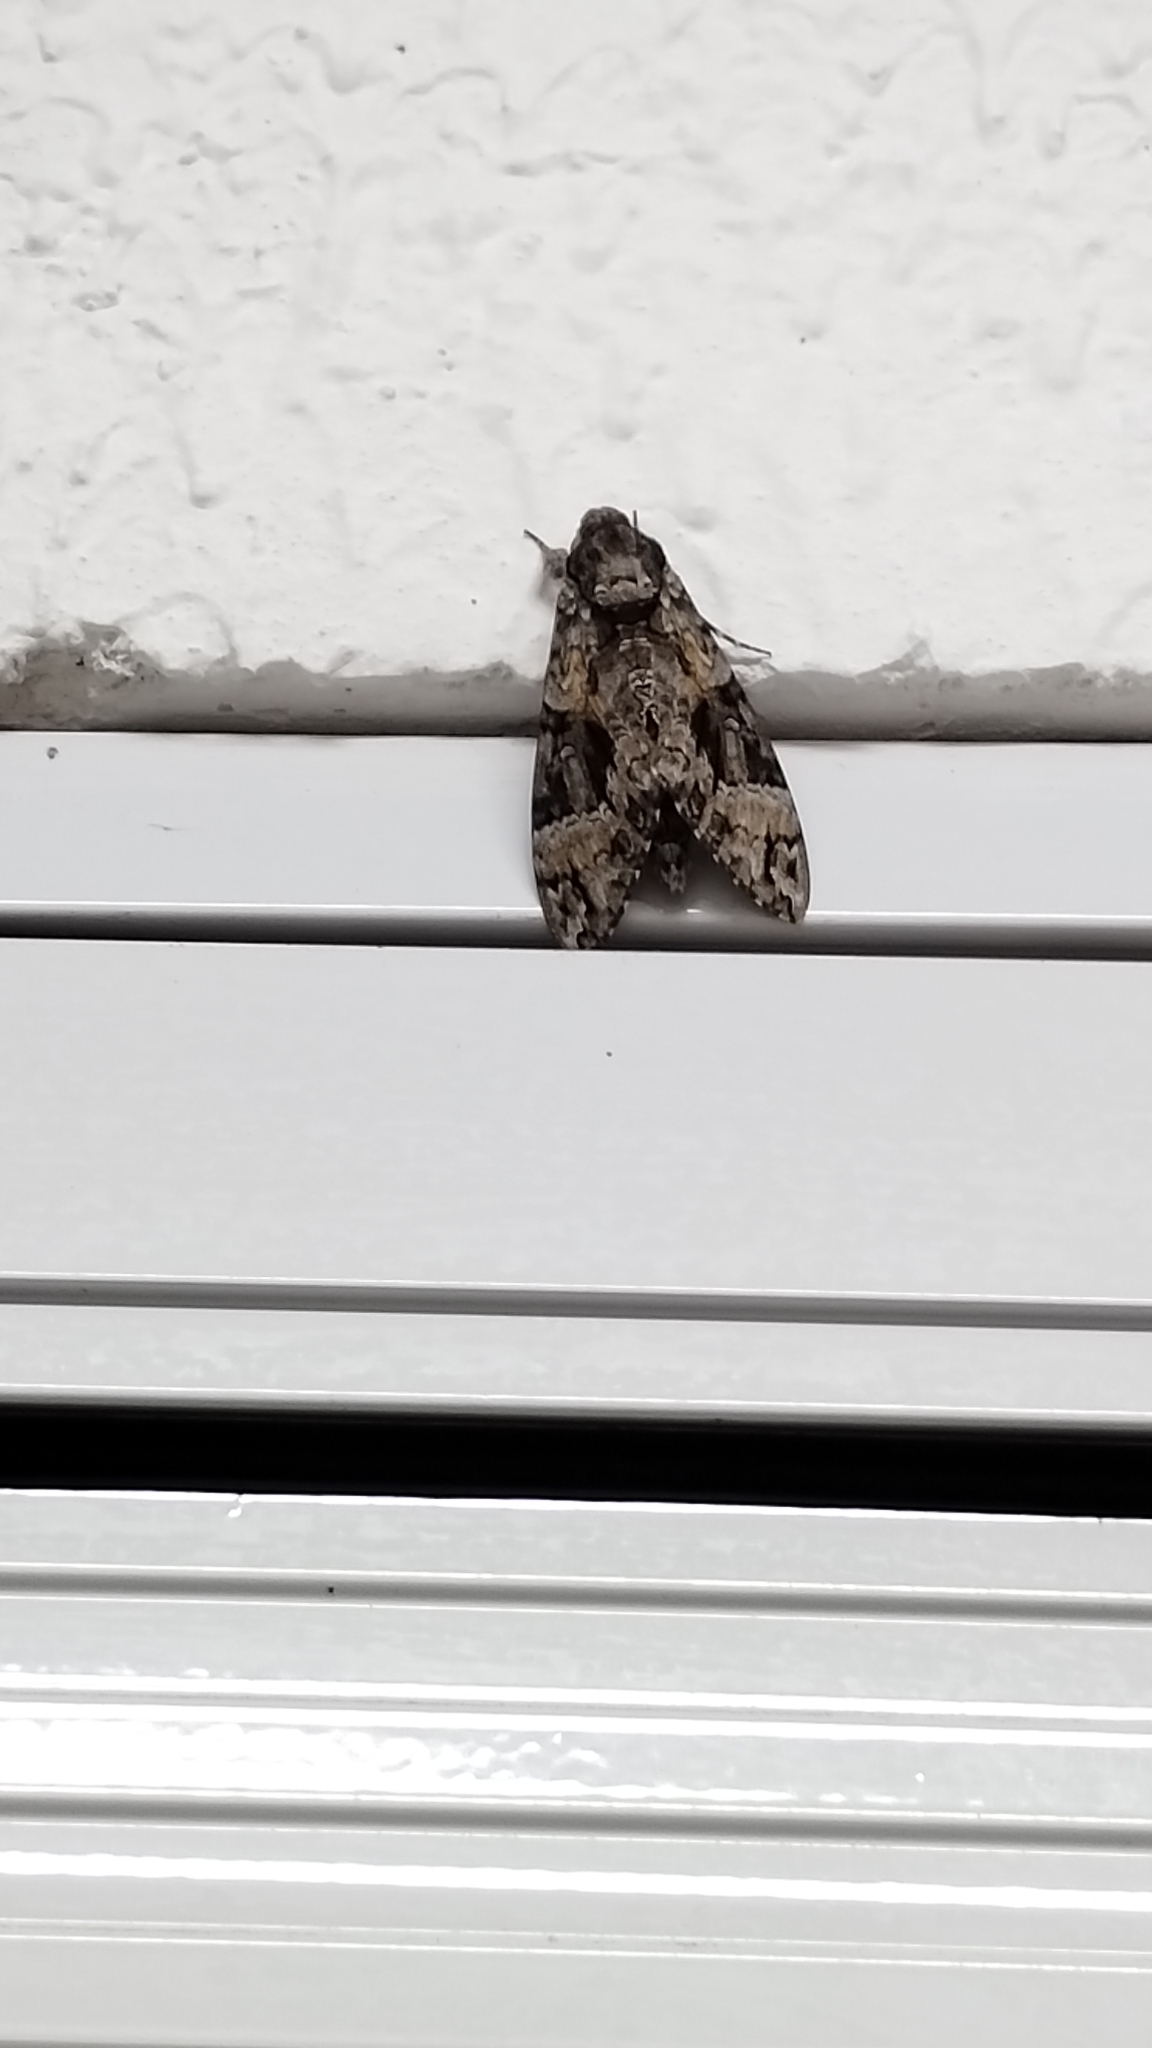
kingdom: Animalia
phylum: Arthropoda
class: Insecta
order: Lepidoptera
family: Sphingidae
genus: Agrius
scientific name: Agrius cingulata
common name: Pink-spotted hawkmoth
